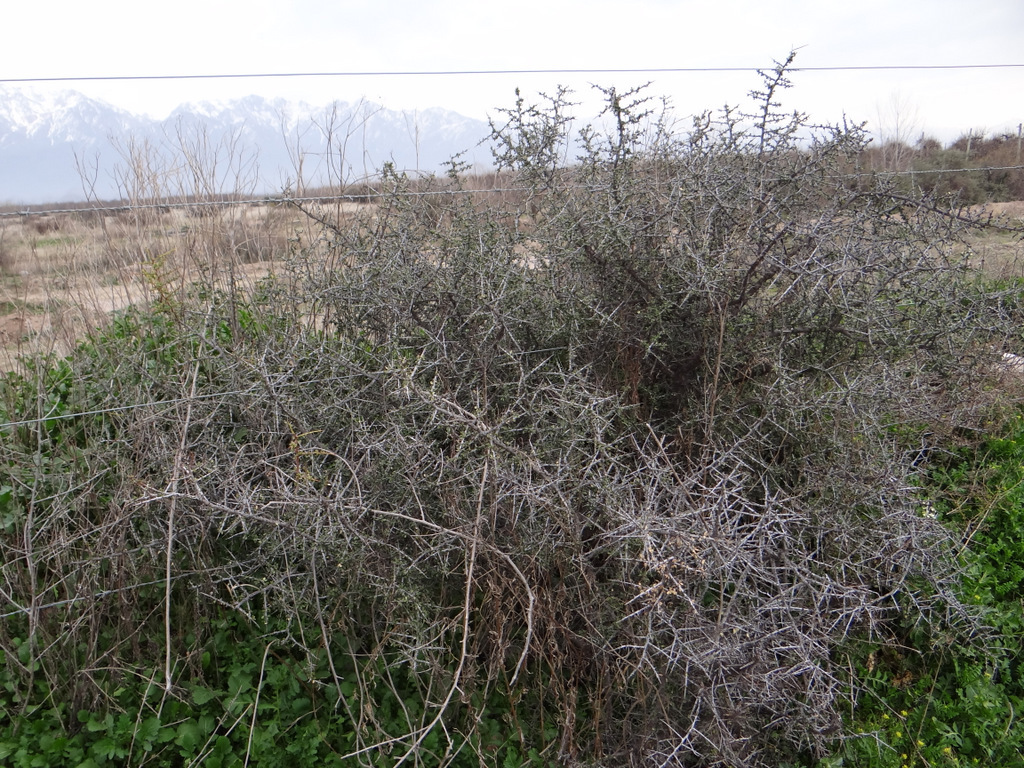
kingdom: Plantae
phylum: Tracheophyta
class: Magnoliopsida
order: Rosales
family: Rhamnaceae
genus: Condalia
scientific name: Condalia microphylla
